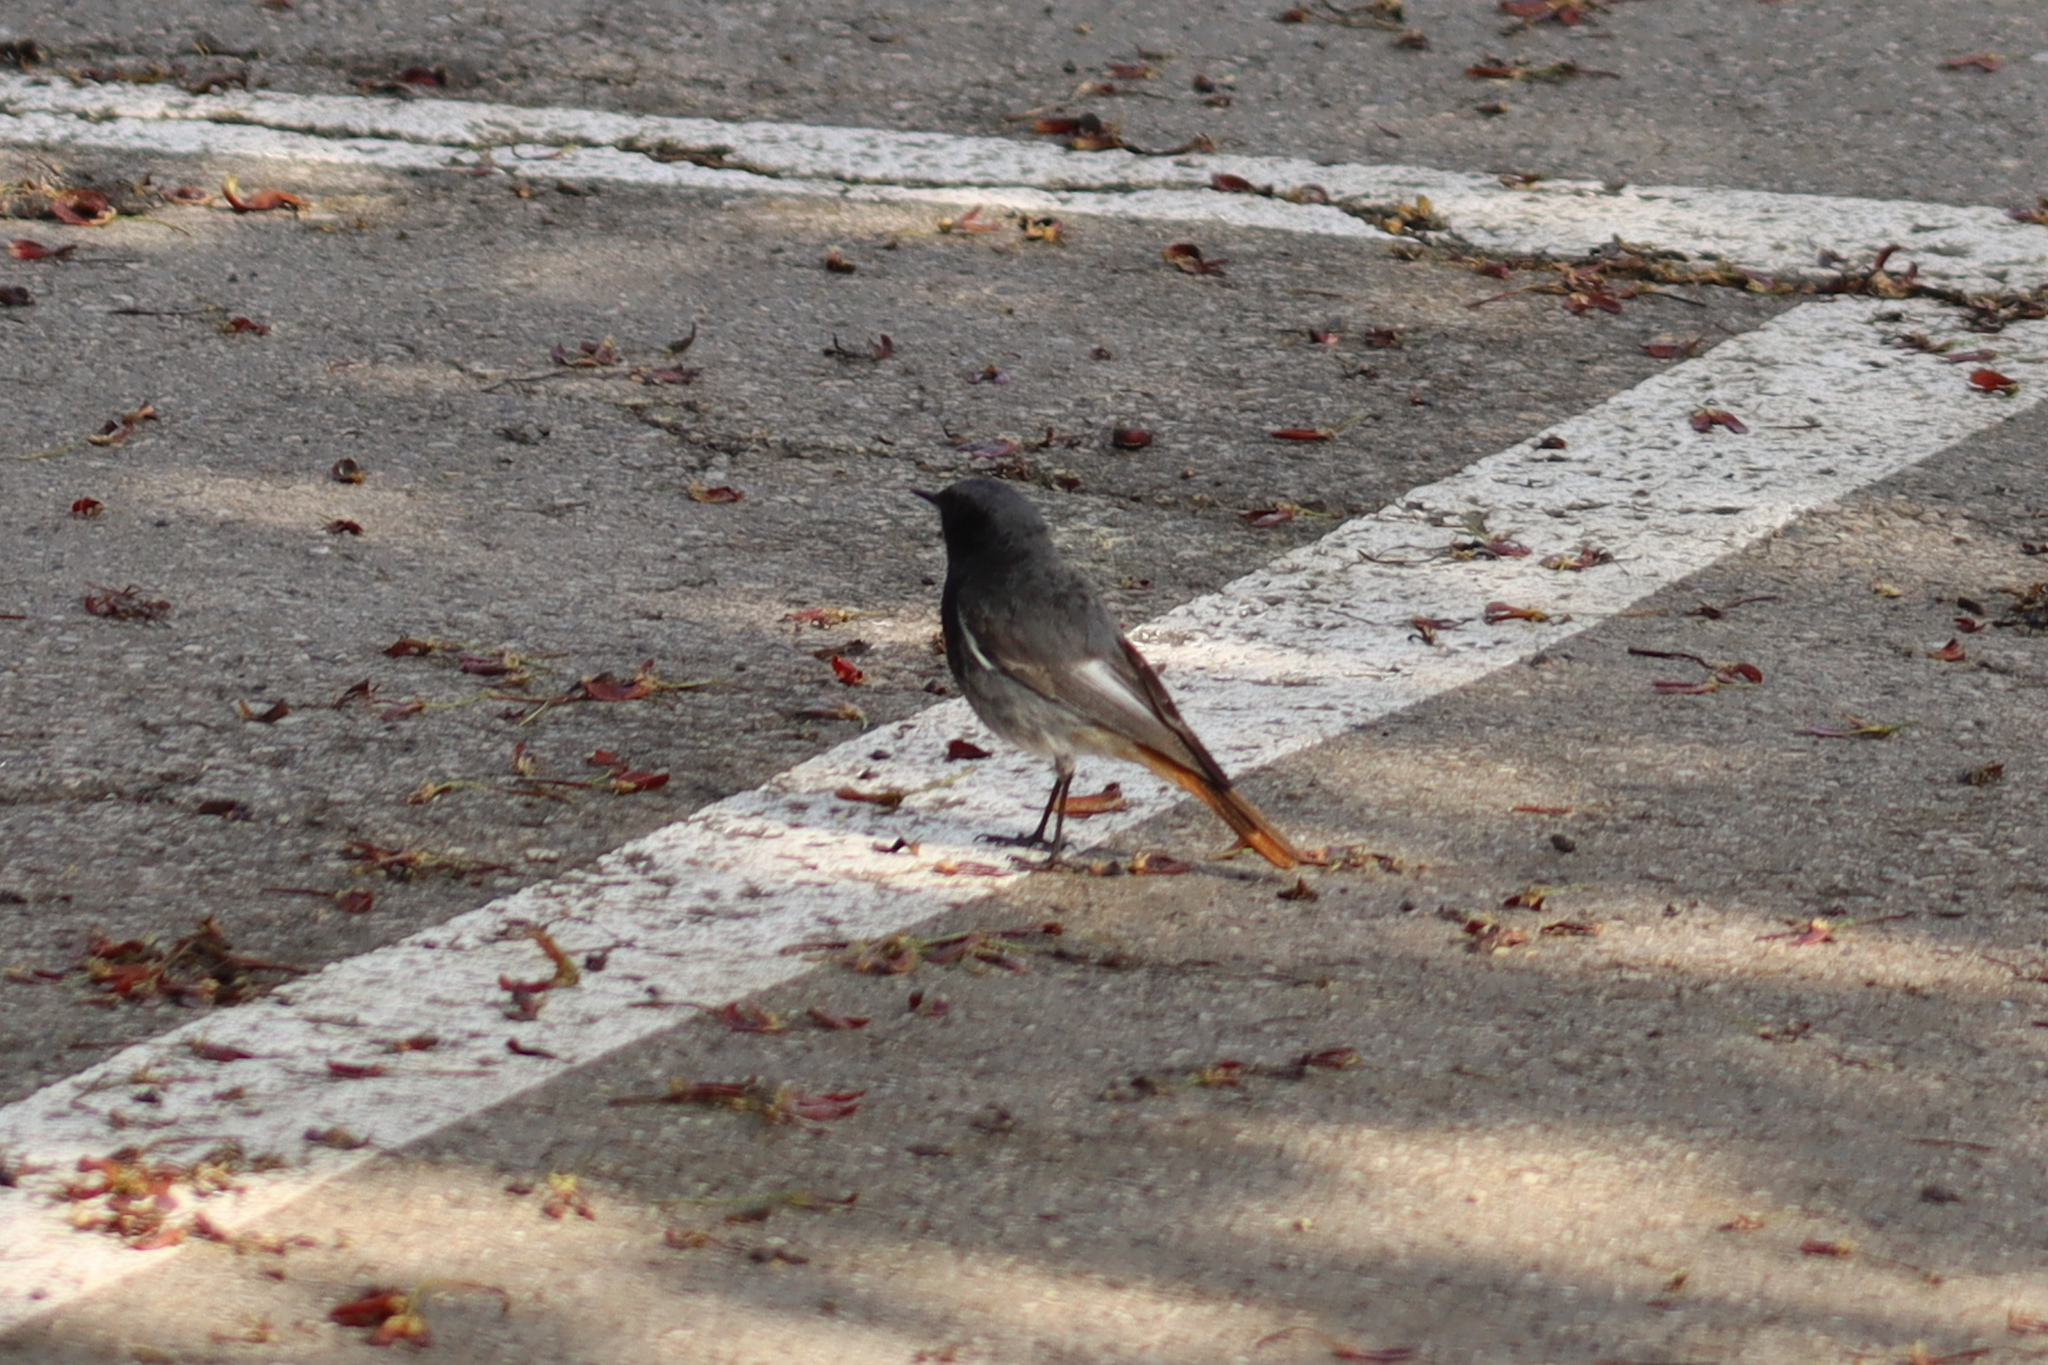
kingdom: Animalia
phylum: Chordata
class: Aves
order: Passeriformes
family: Muscicapidae
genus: Phoenicurus
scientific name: Phoenicurus ochruros
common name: Black redstart
